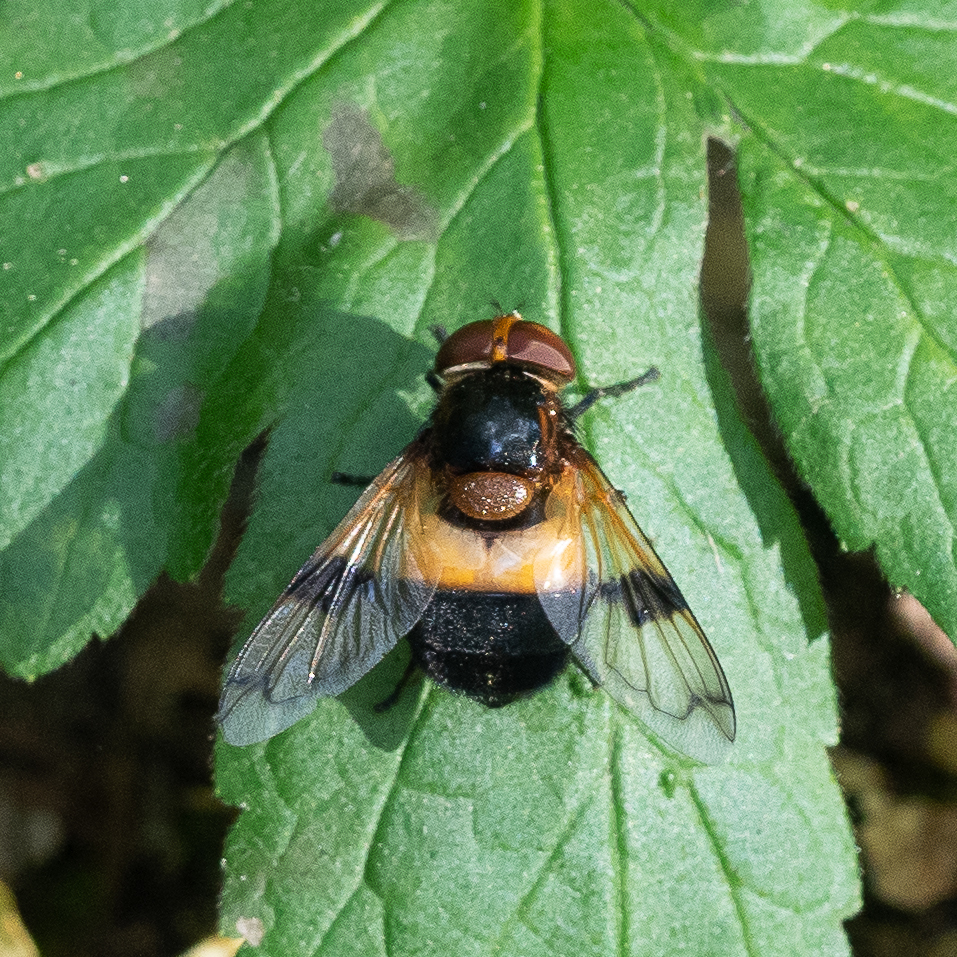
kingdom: Animalia
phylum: Arthropoda
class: Insecta
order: Diptera
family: Syrphidae
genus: Volucella
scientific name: Volucella pellucens
